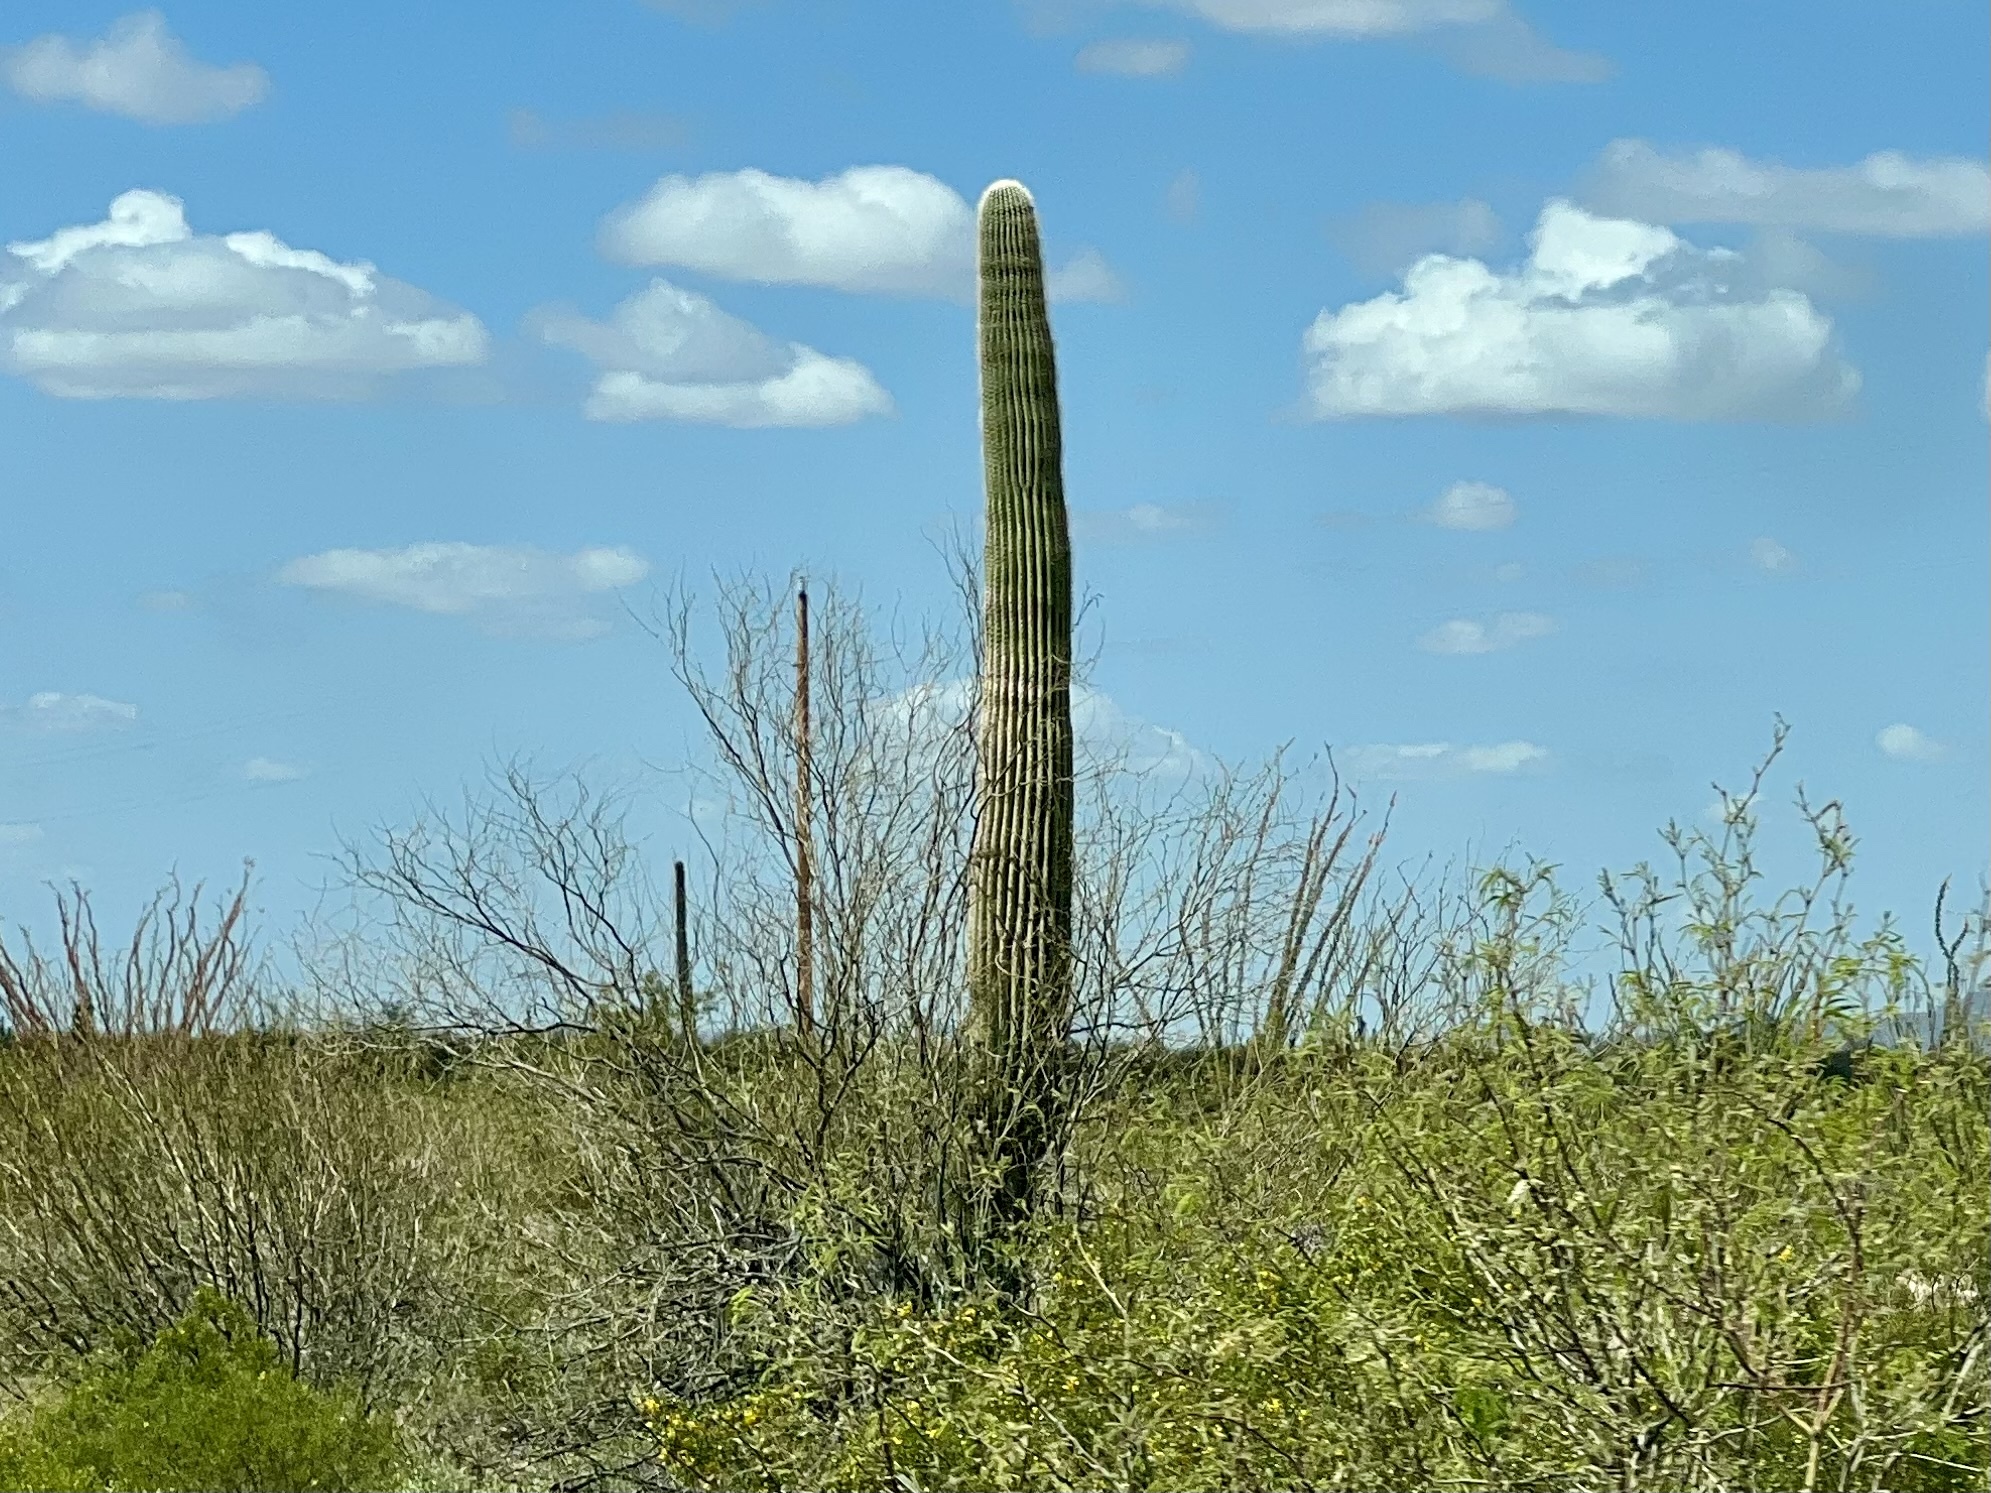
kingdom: Plantae
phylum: Tracheophyta
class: Magnoliopsida
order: Caryophyllales
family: Cactaceae
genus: Carnegiea
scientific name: Carnegiea gigantea
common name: Saguaro
